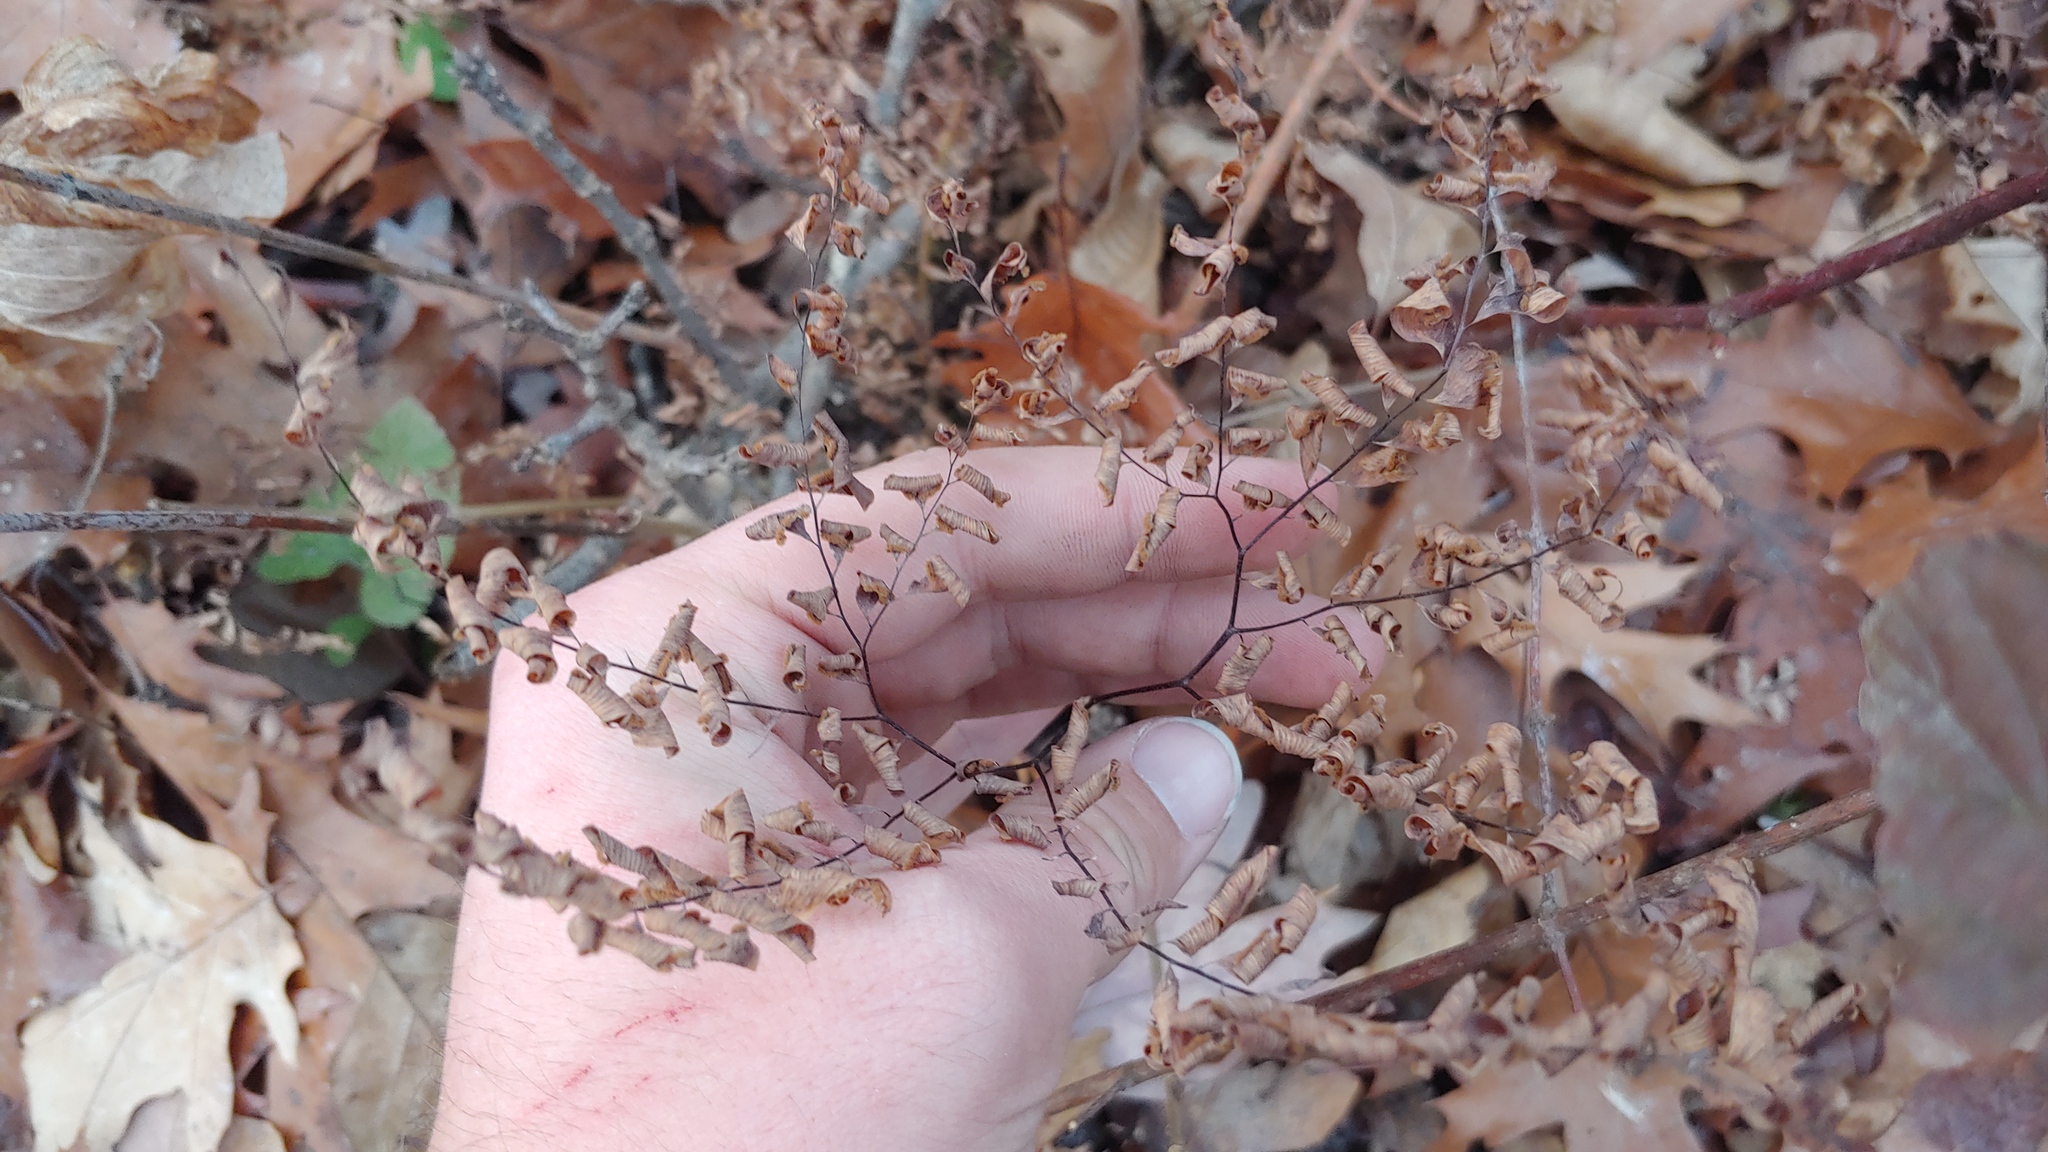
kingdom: Plantae
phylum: Tracheophyta
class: Polypodiopsida
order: Polypodiales
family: Pteridaceae
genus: Adiantum
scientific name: Adiantum pedatum
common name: Five-finger fern
